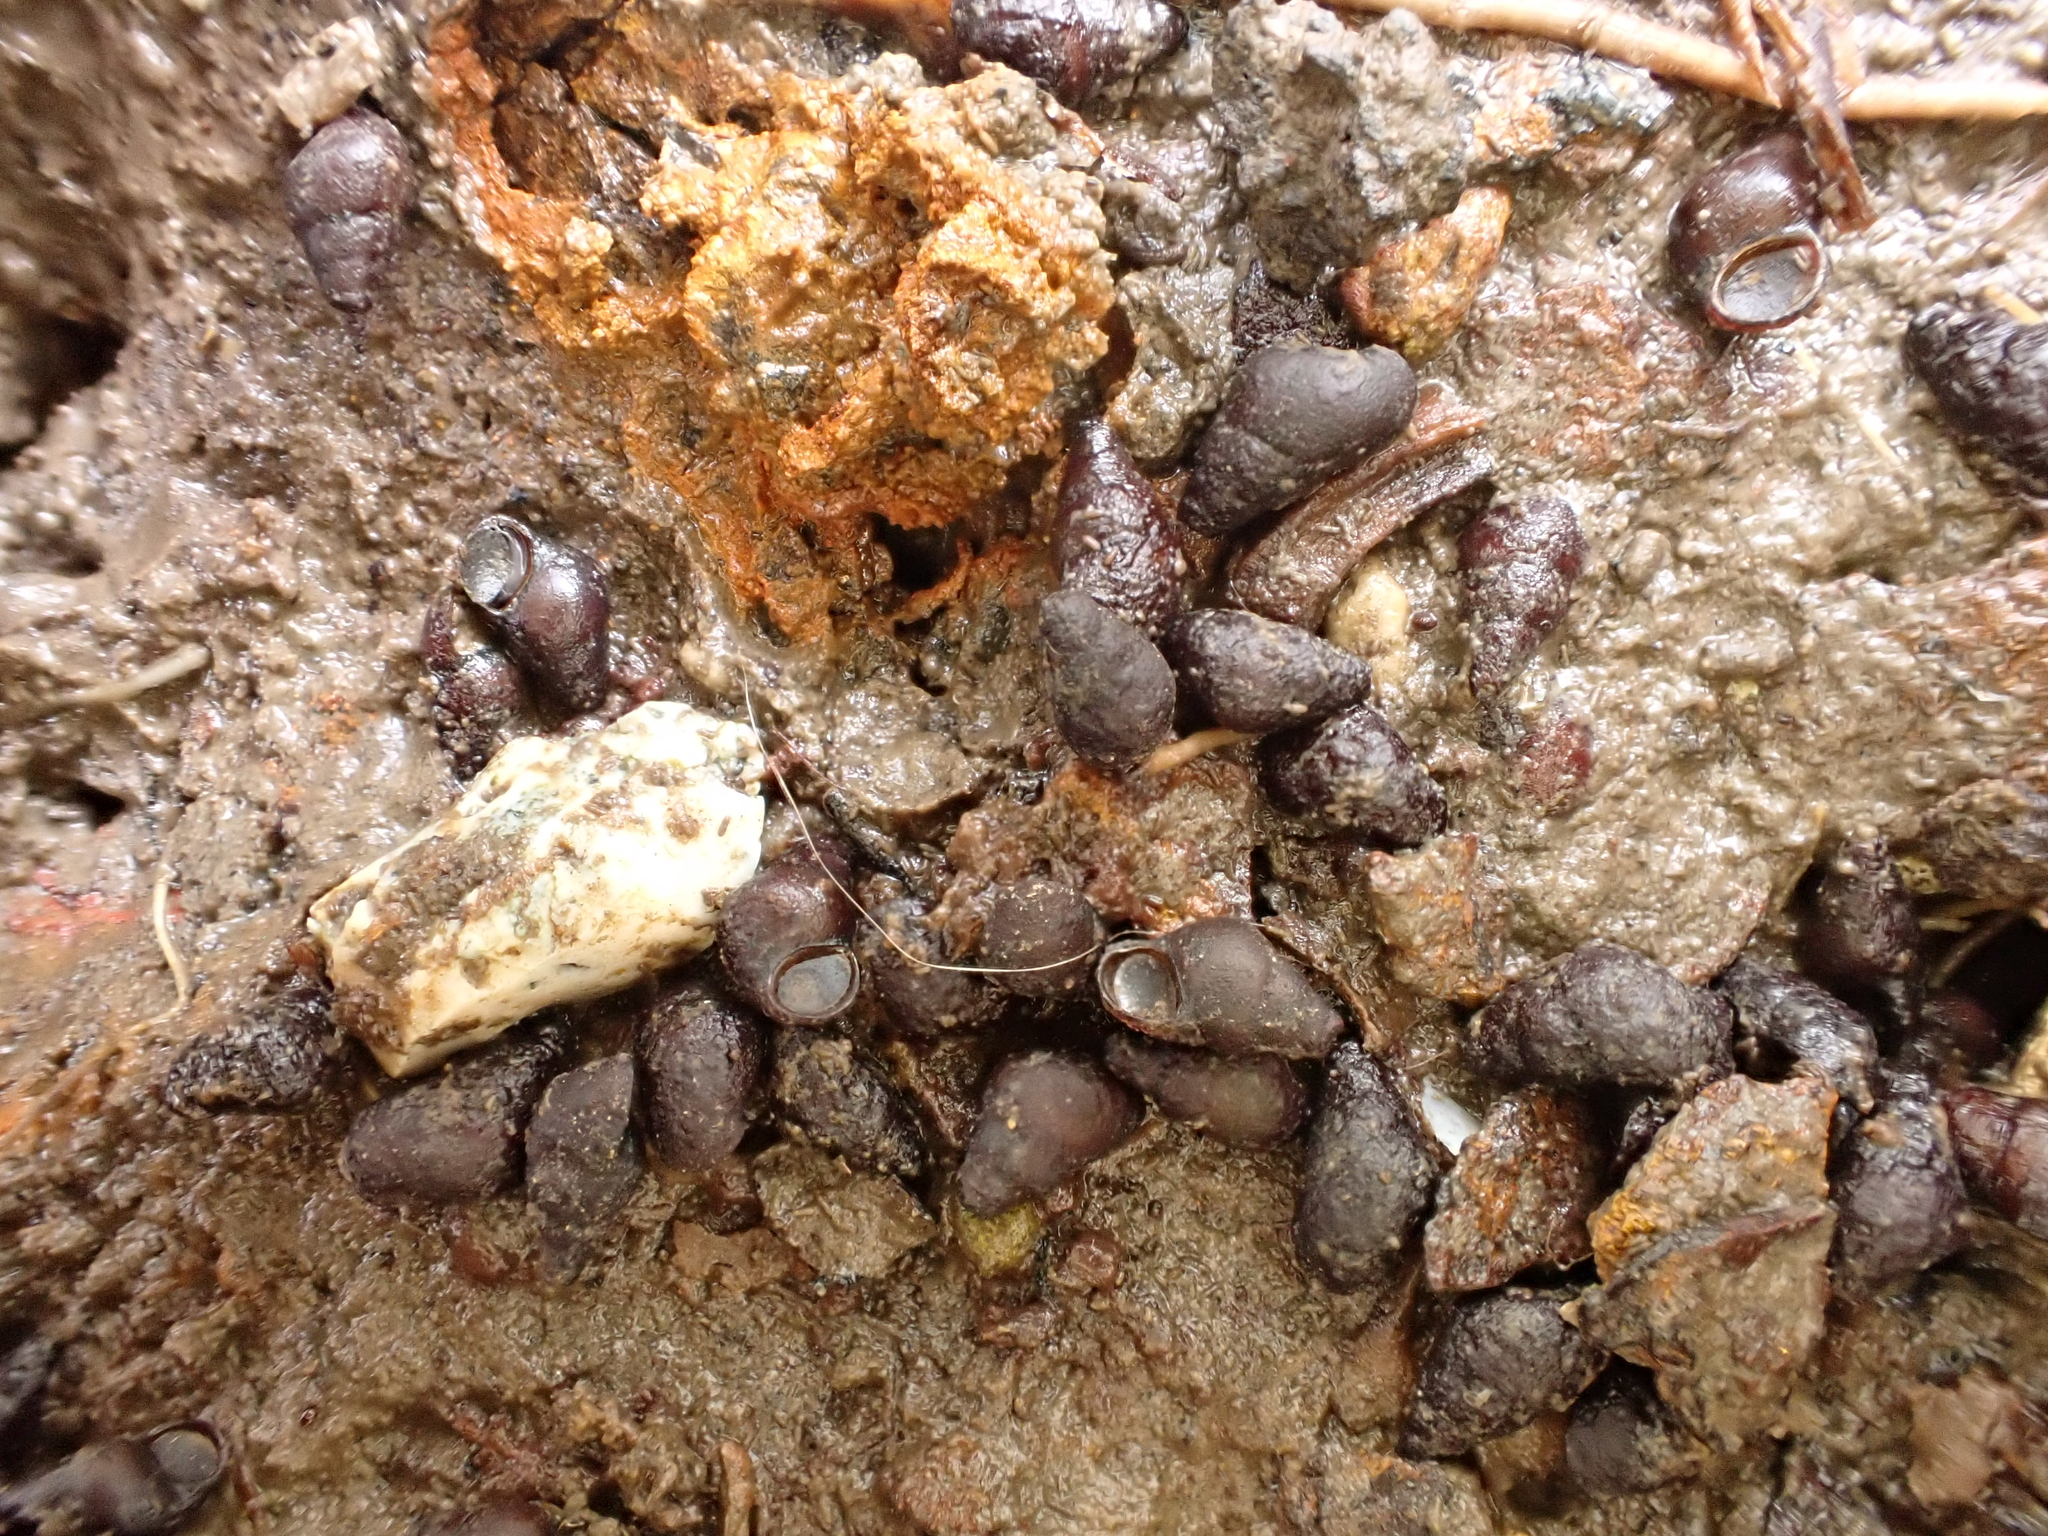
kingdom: Animalia
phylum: Mollusca
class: Gastropoda
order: Littorinimorpha
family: Tateidae
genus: Potamopyrgus
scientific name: Potamopyrgus estuarinus
